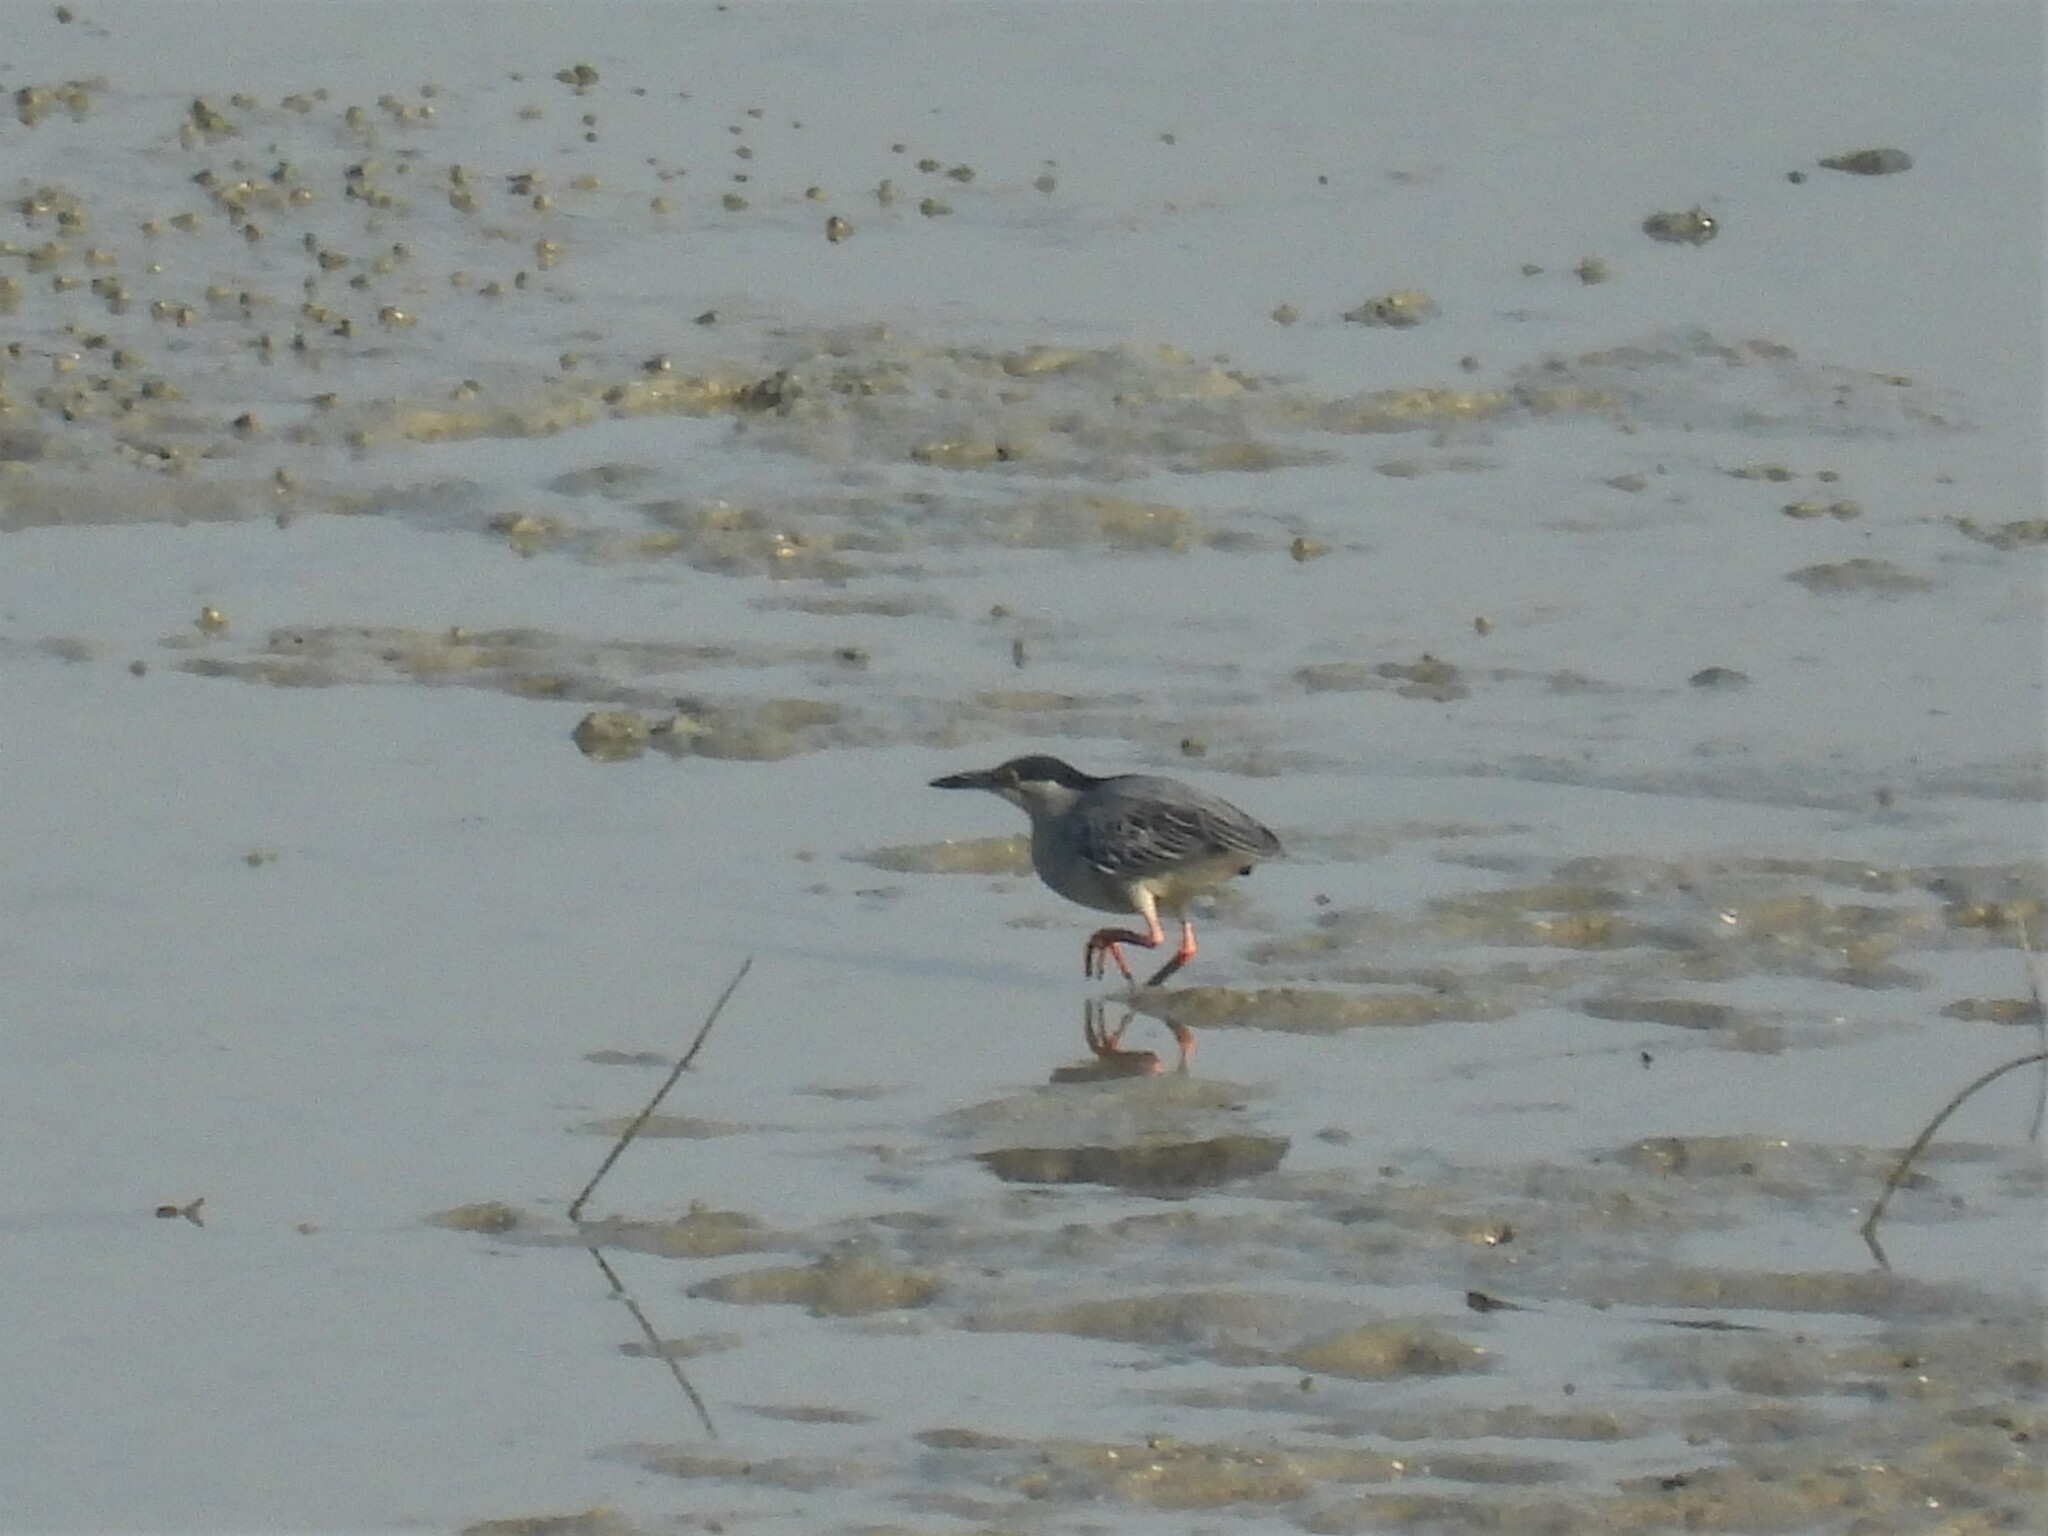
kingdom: Animalia
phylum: Chordata
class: Aves
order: Pelecaniformes
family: Ardeidae
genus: Butorides
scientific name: Butorides striata
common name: Striated heron
